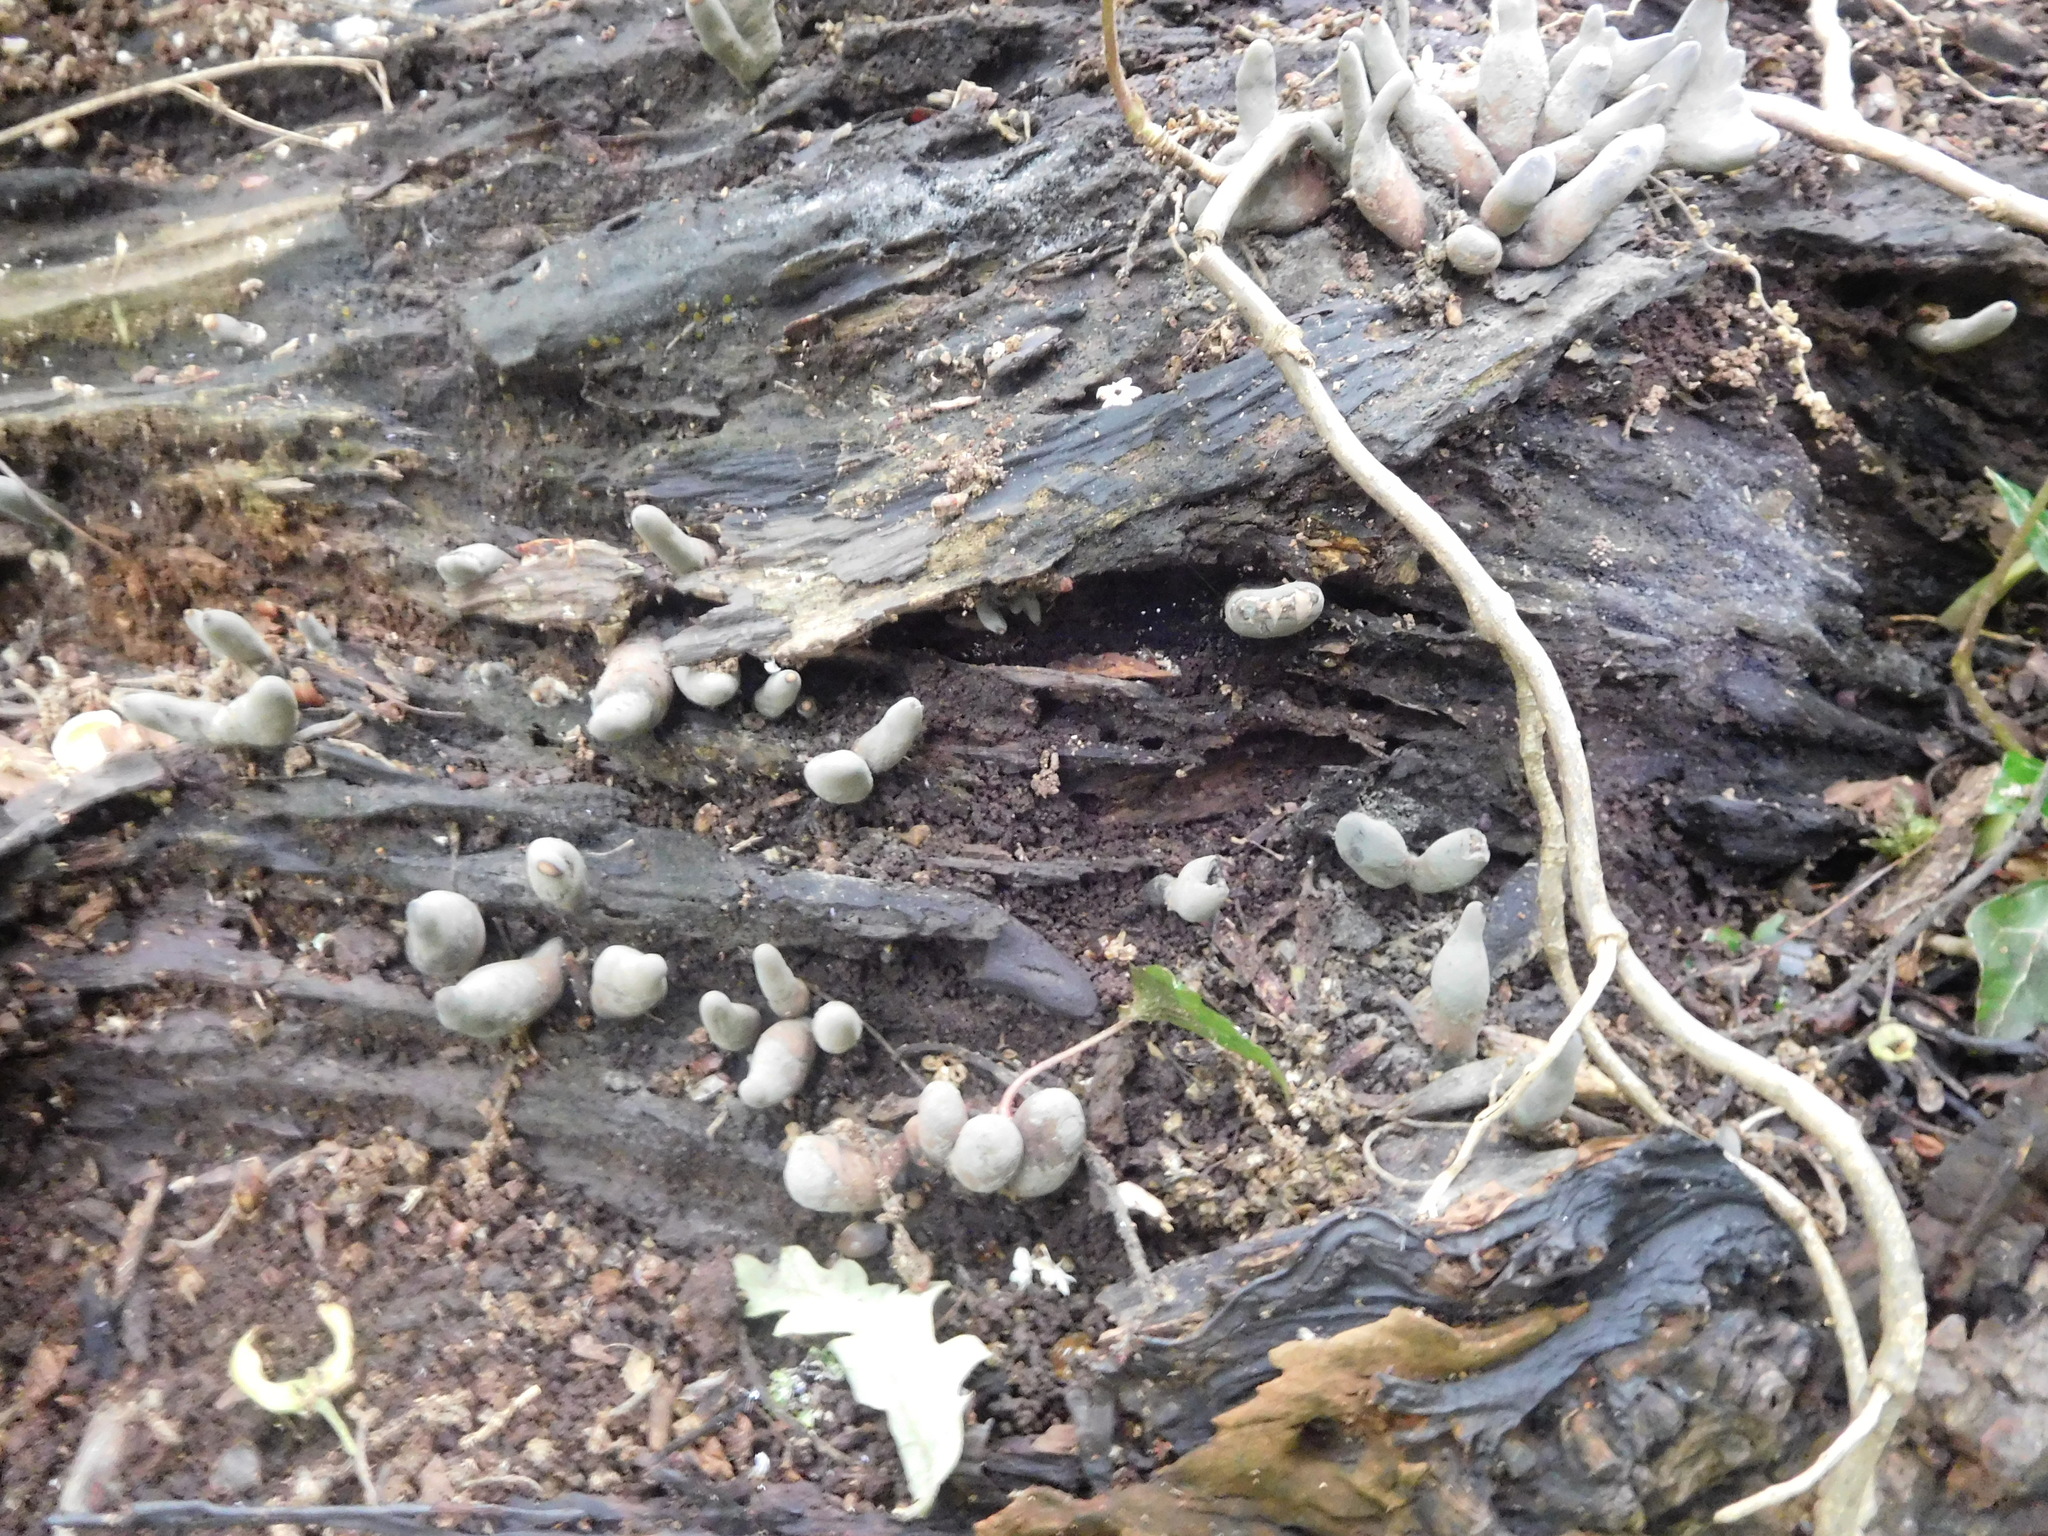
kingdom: Fungi
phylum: Ascomycota
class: Sordariomycetes
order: Xylariales
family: Xylariaceae
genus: Xylaria
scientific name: Xylaria polymorpha
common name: Dead man's fingers
